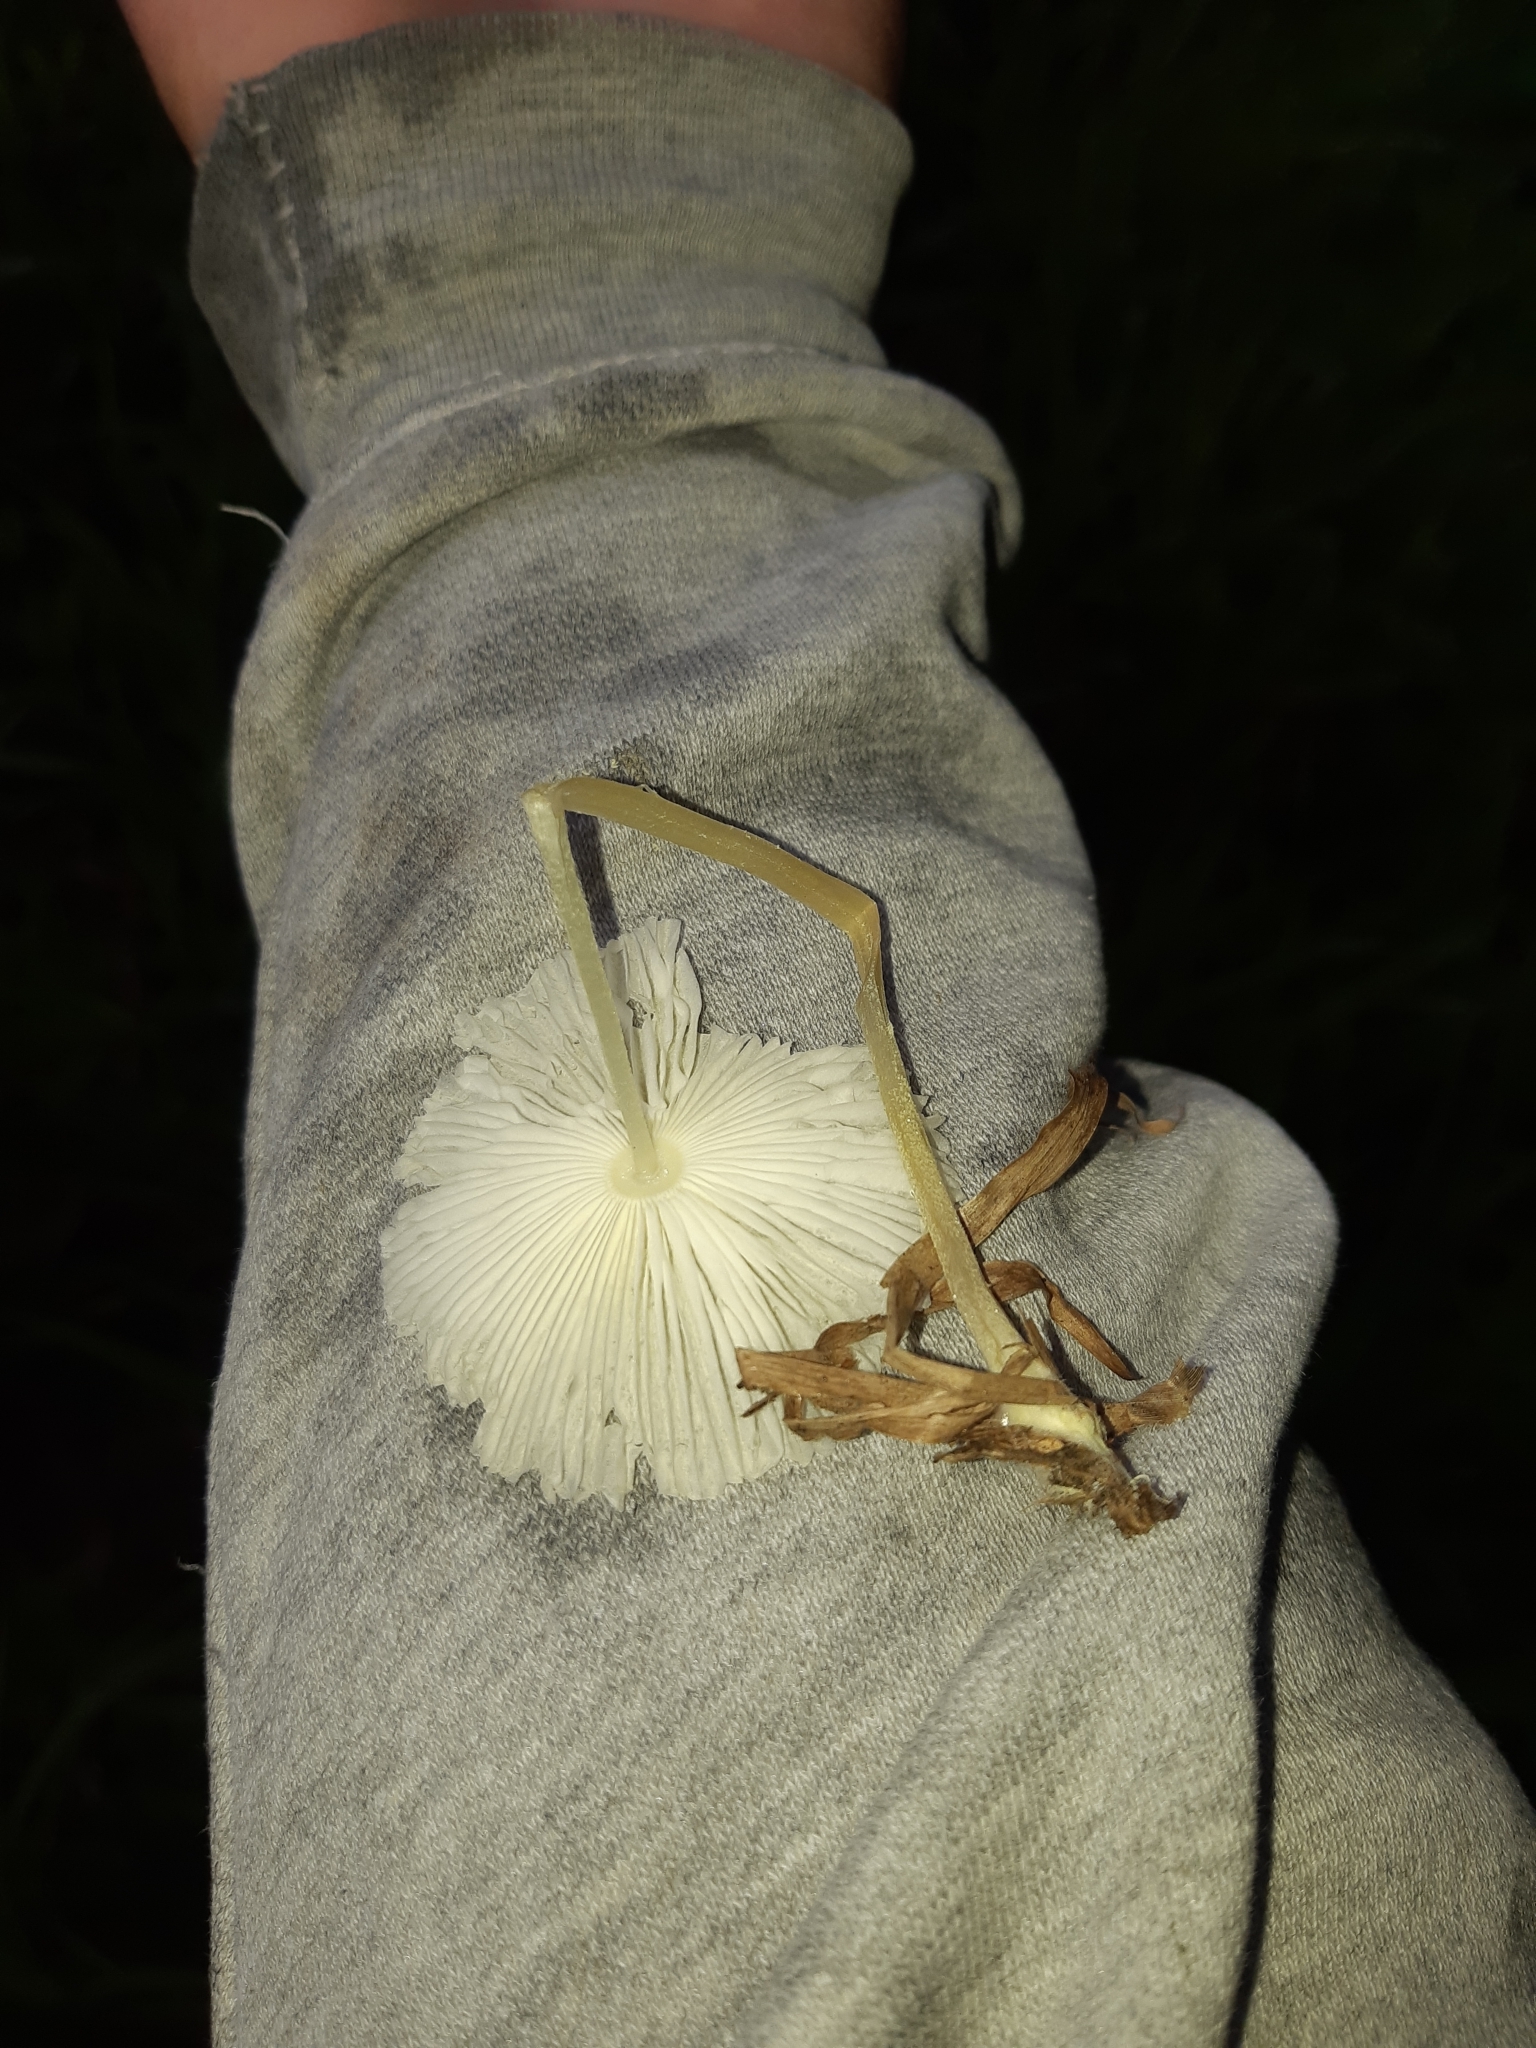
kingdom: Fungi
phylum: Basidiomycota
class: Agaricomycetes
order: Agaricales
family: Agaricaceae
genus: Leucocoprinus
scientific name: Leucocoprinus fragilissimus
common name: Fragile dapperling
